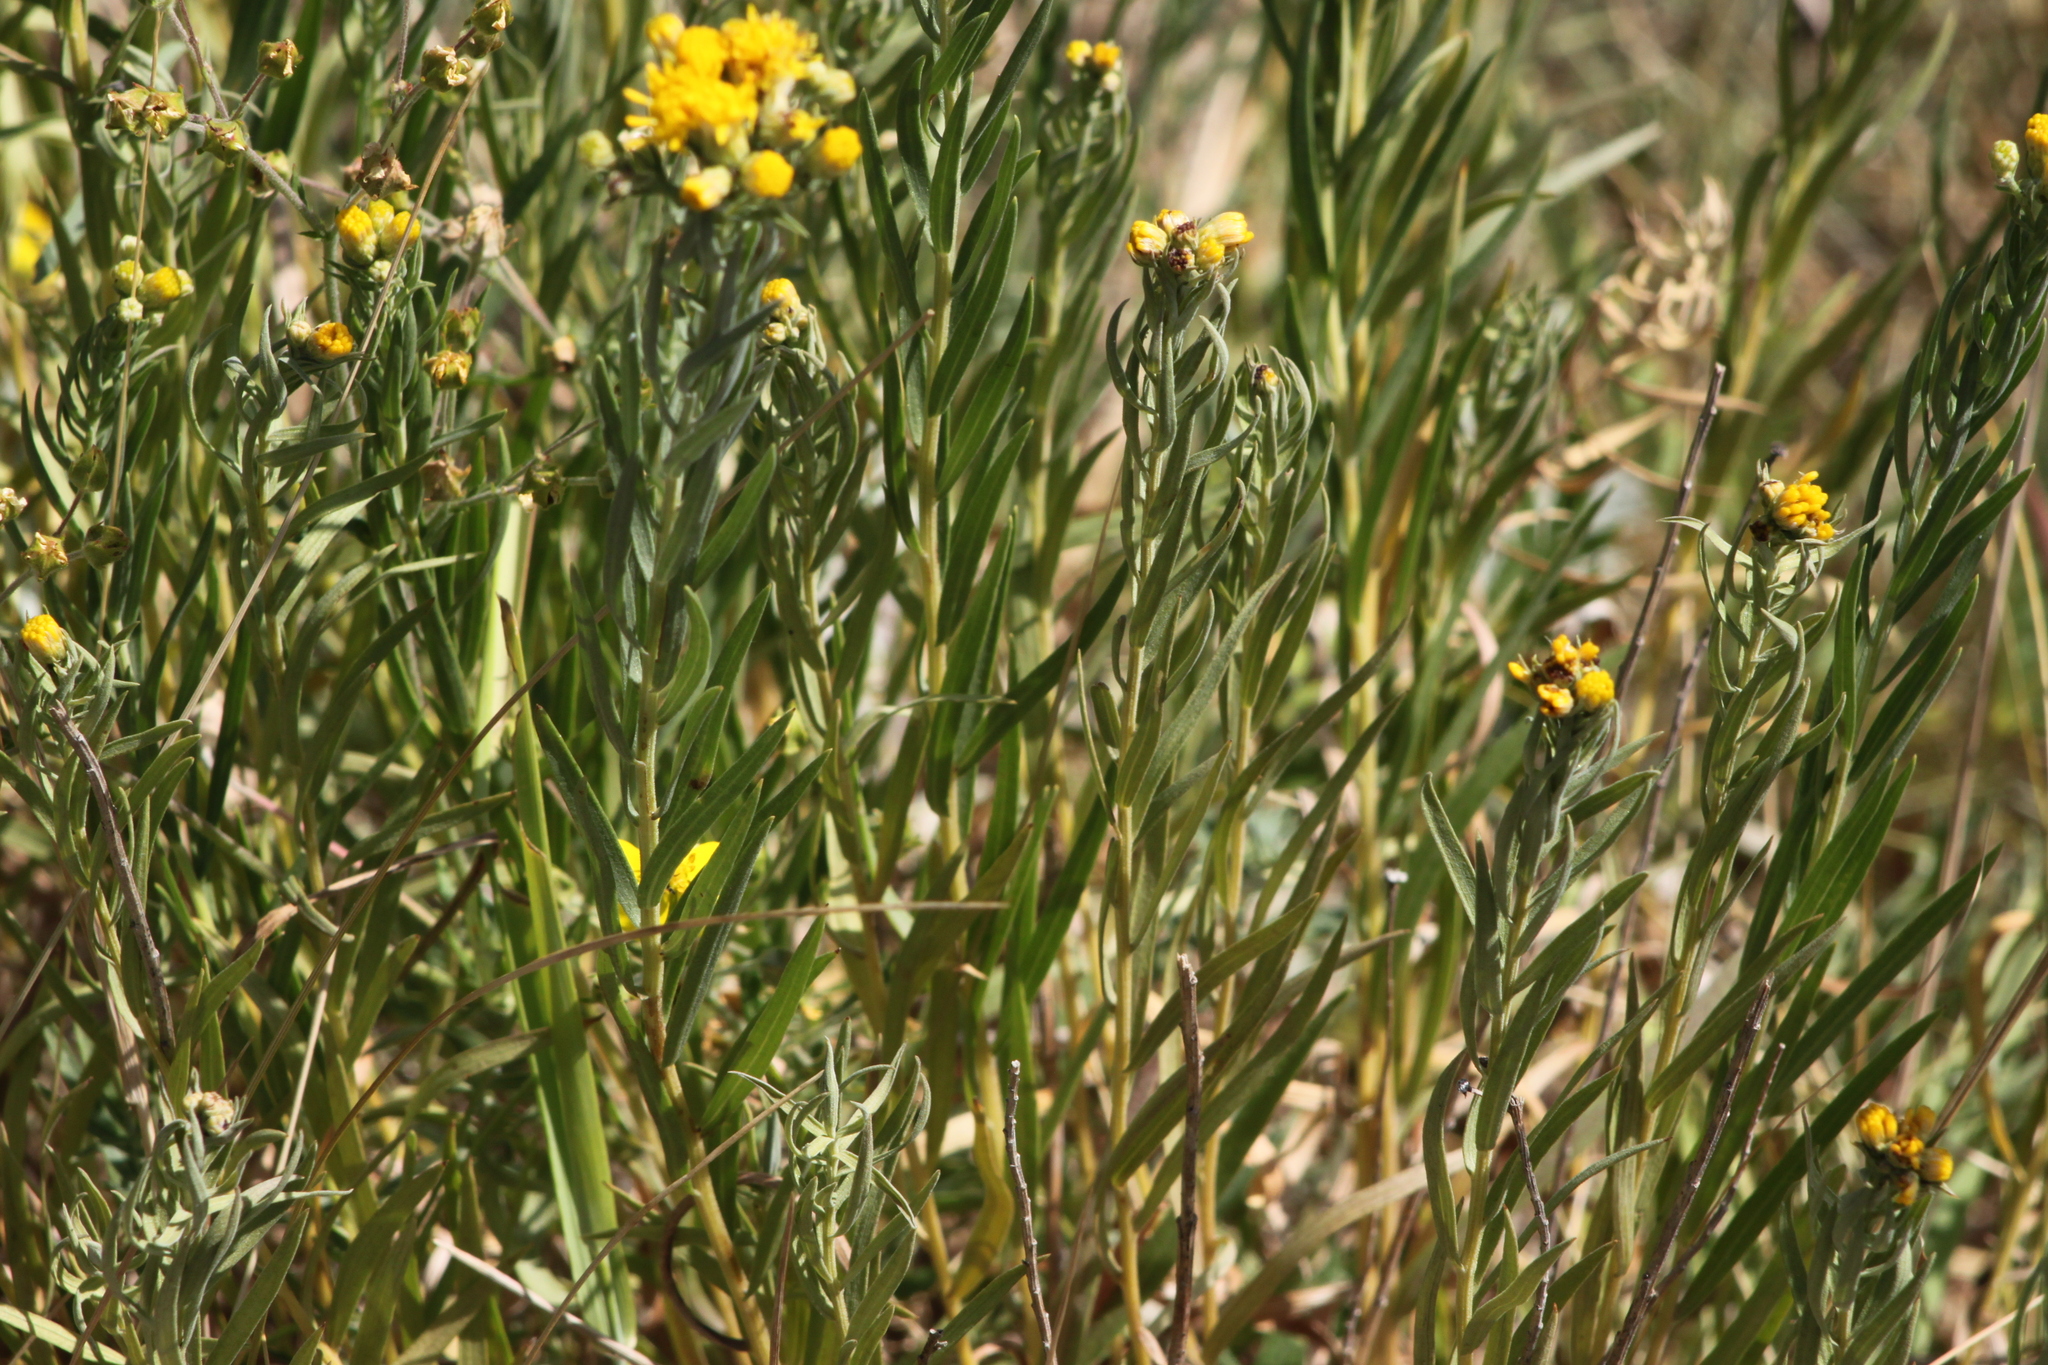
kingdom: Plantae
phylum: Tracheophyta
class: Magnoliopsida
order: Asterales
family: Asteraceae
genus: Galatella
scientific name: Galatella linosyris
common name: Goldilocks aster
